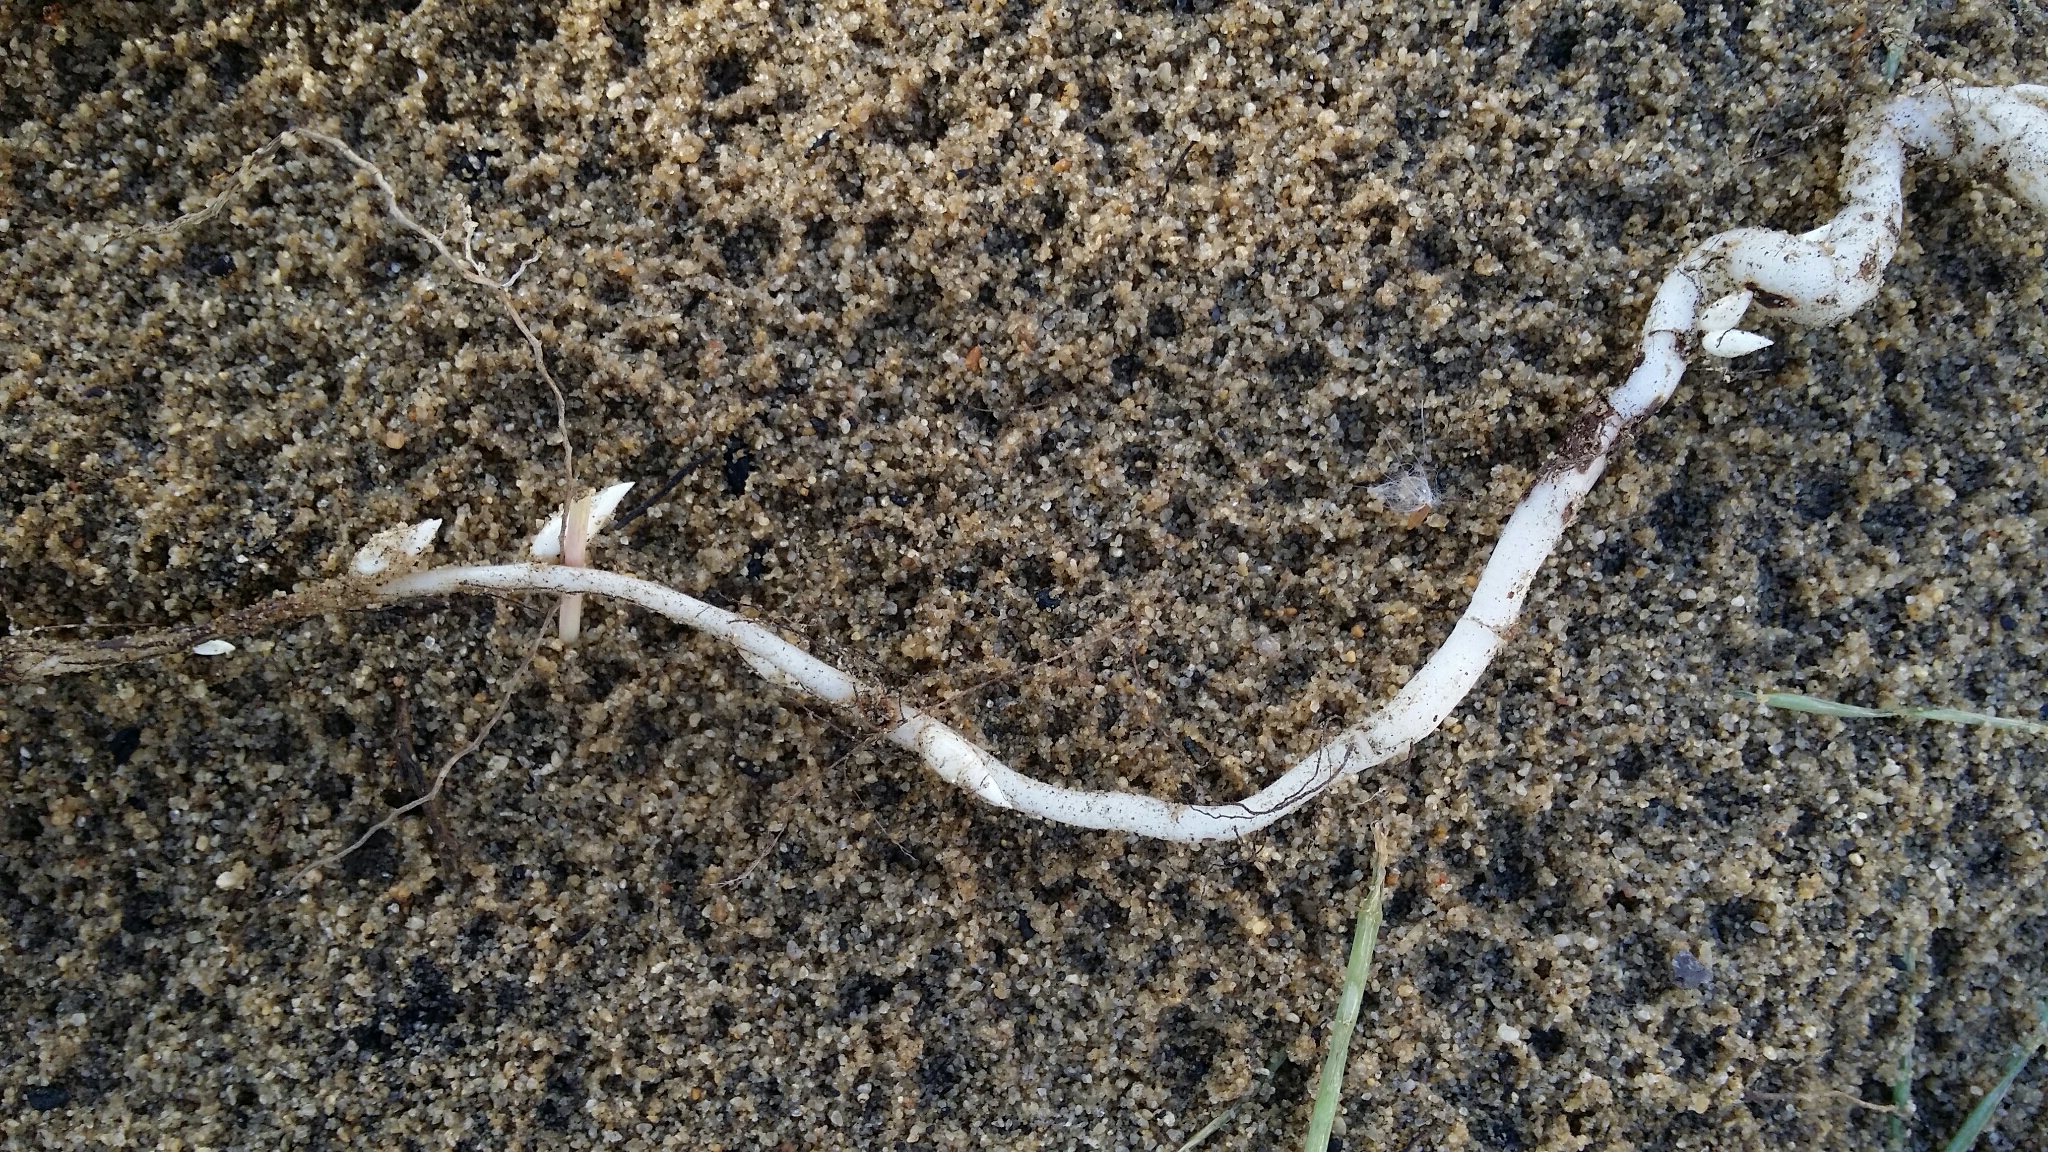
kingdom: Plantae
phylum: Tracheophyta
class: Magnoliopsida
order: Oxalidales
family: Oxalidaceae
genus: Oxalis
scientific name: Oxalis pes-caprae
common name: Bermuda-buttercup
